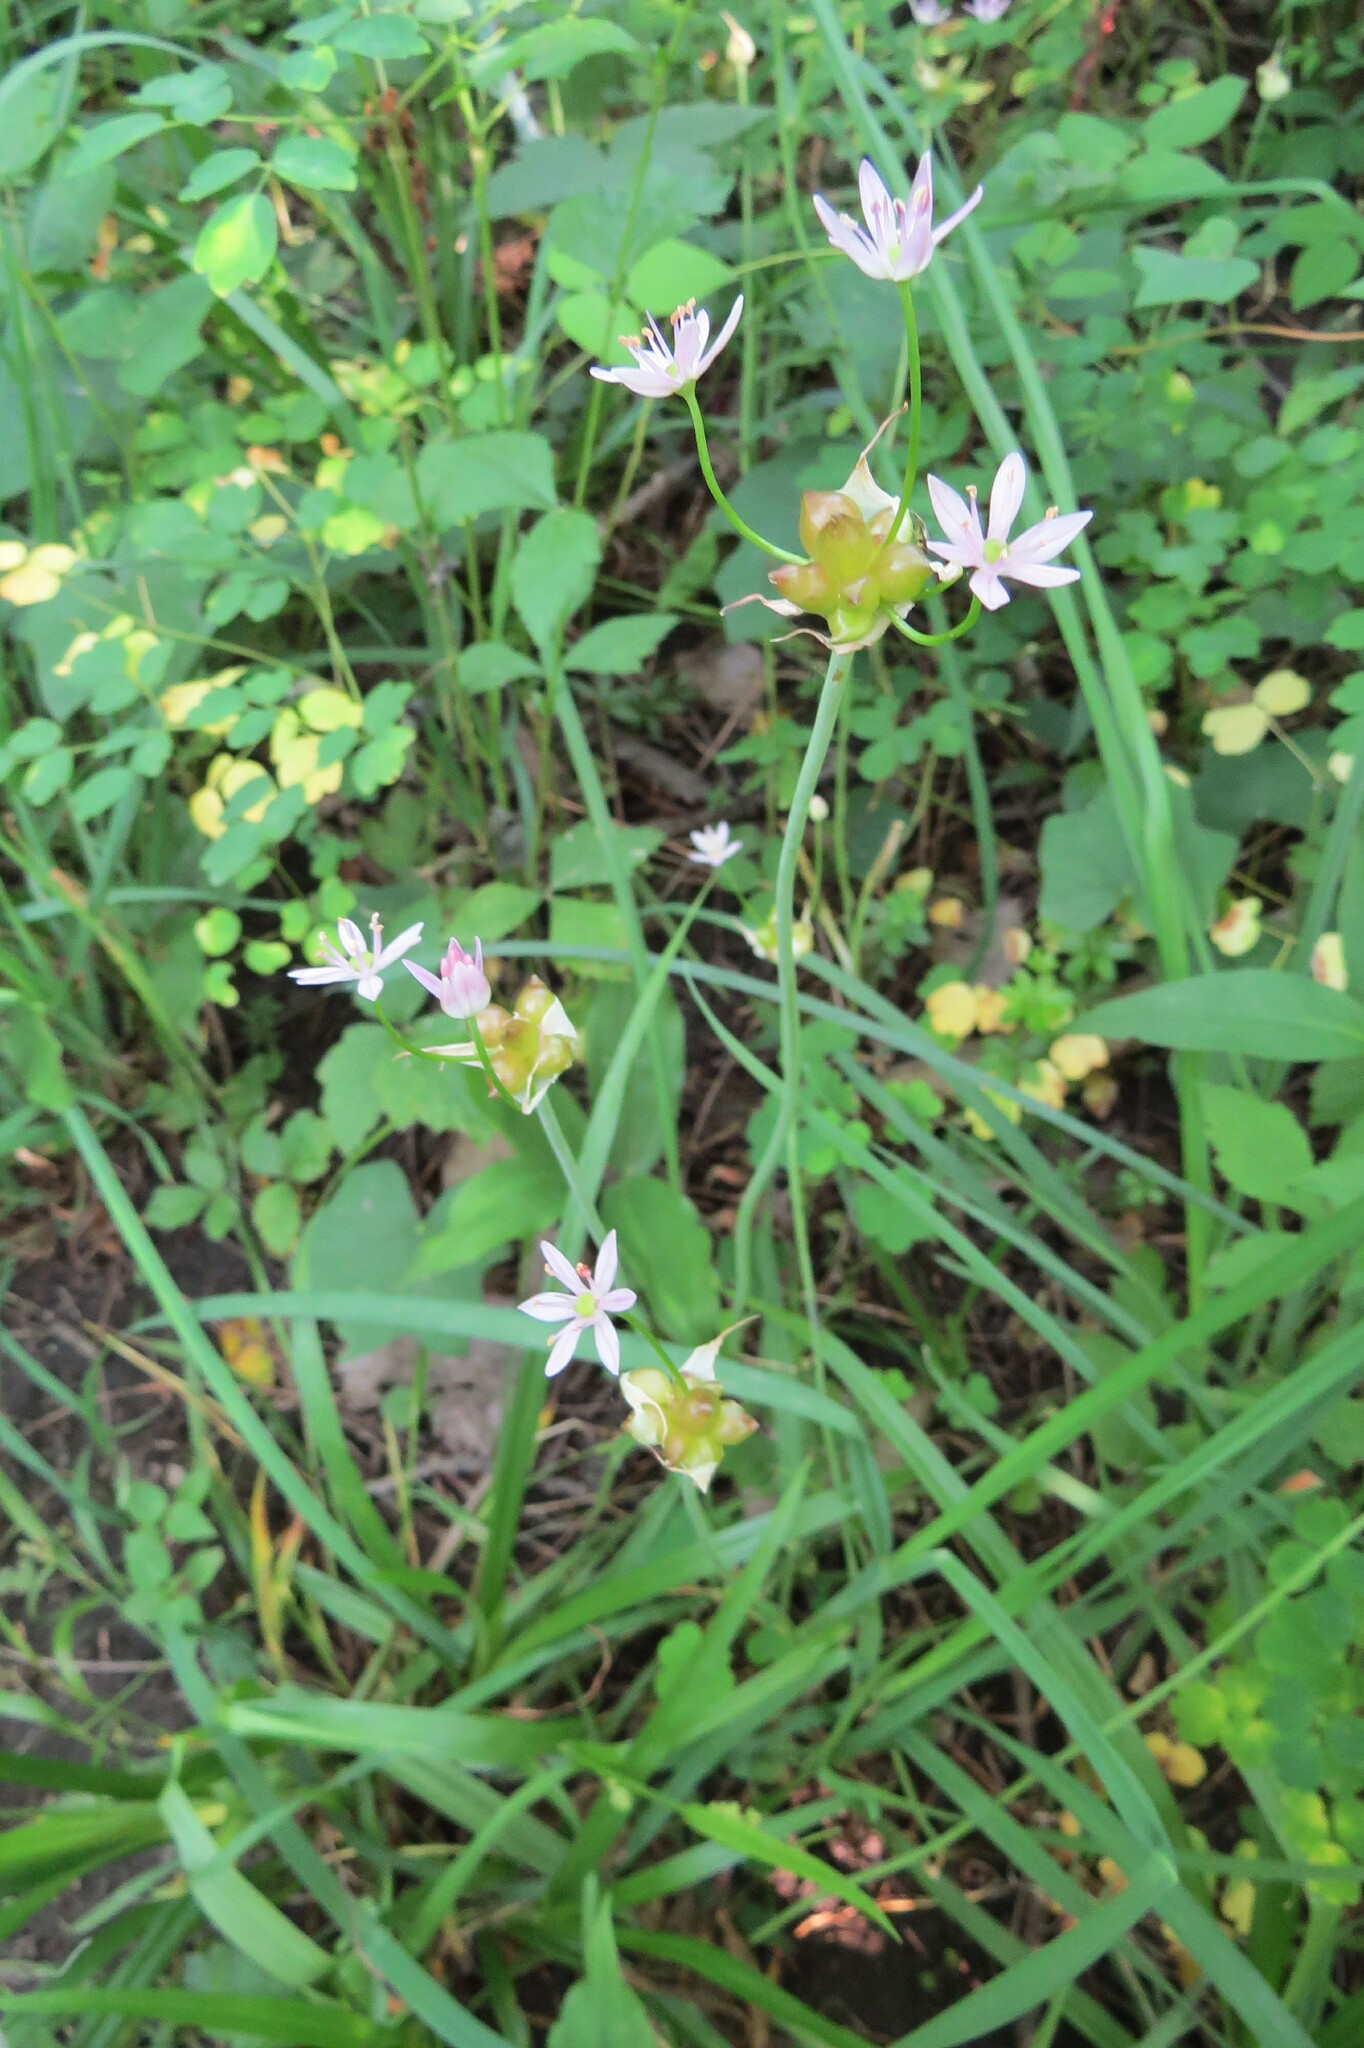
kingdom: Plantae
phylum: Tracheophyta
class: Liliopsida
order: Asparagales
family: Amaryllidaceae
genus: Allium
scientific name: Allium canadense
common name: Meadow garlic
